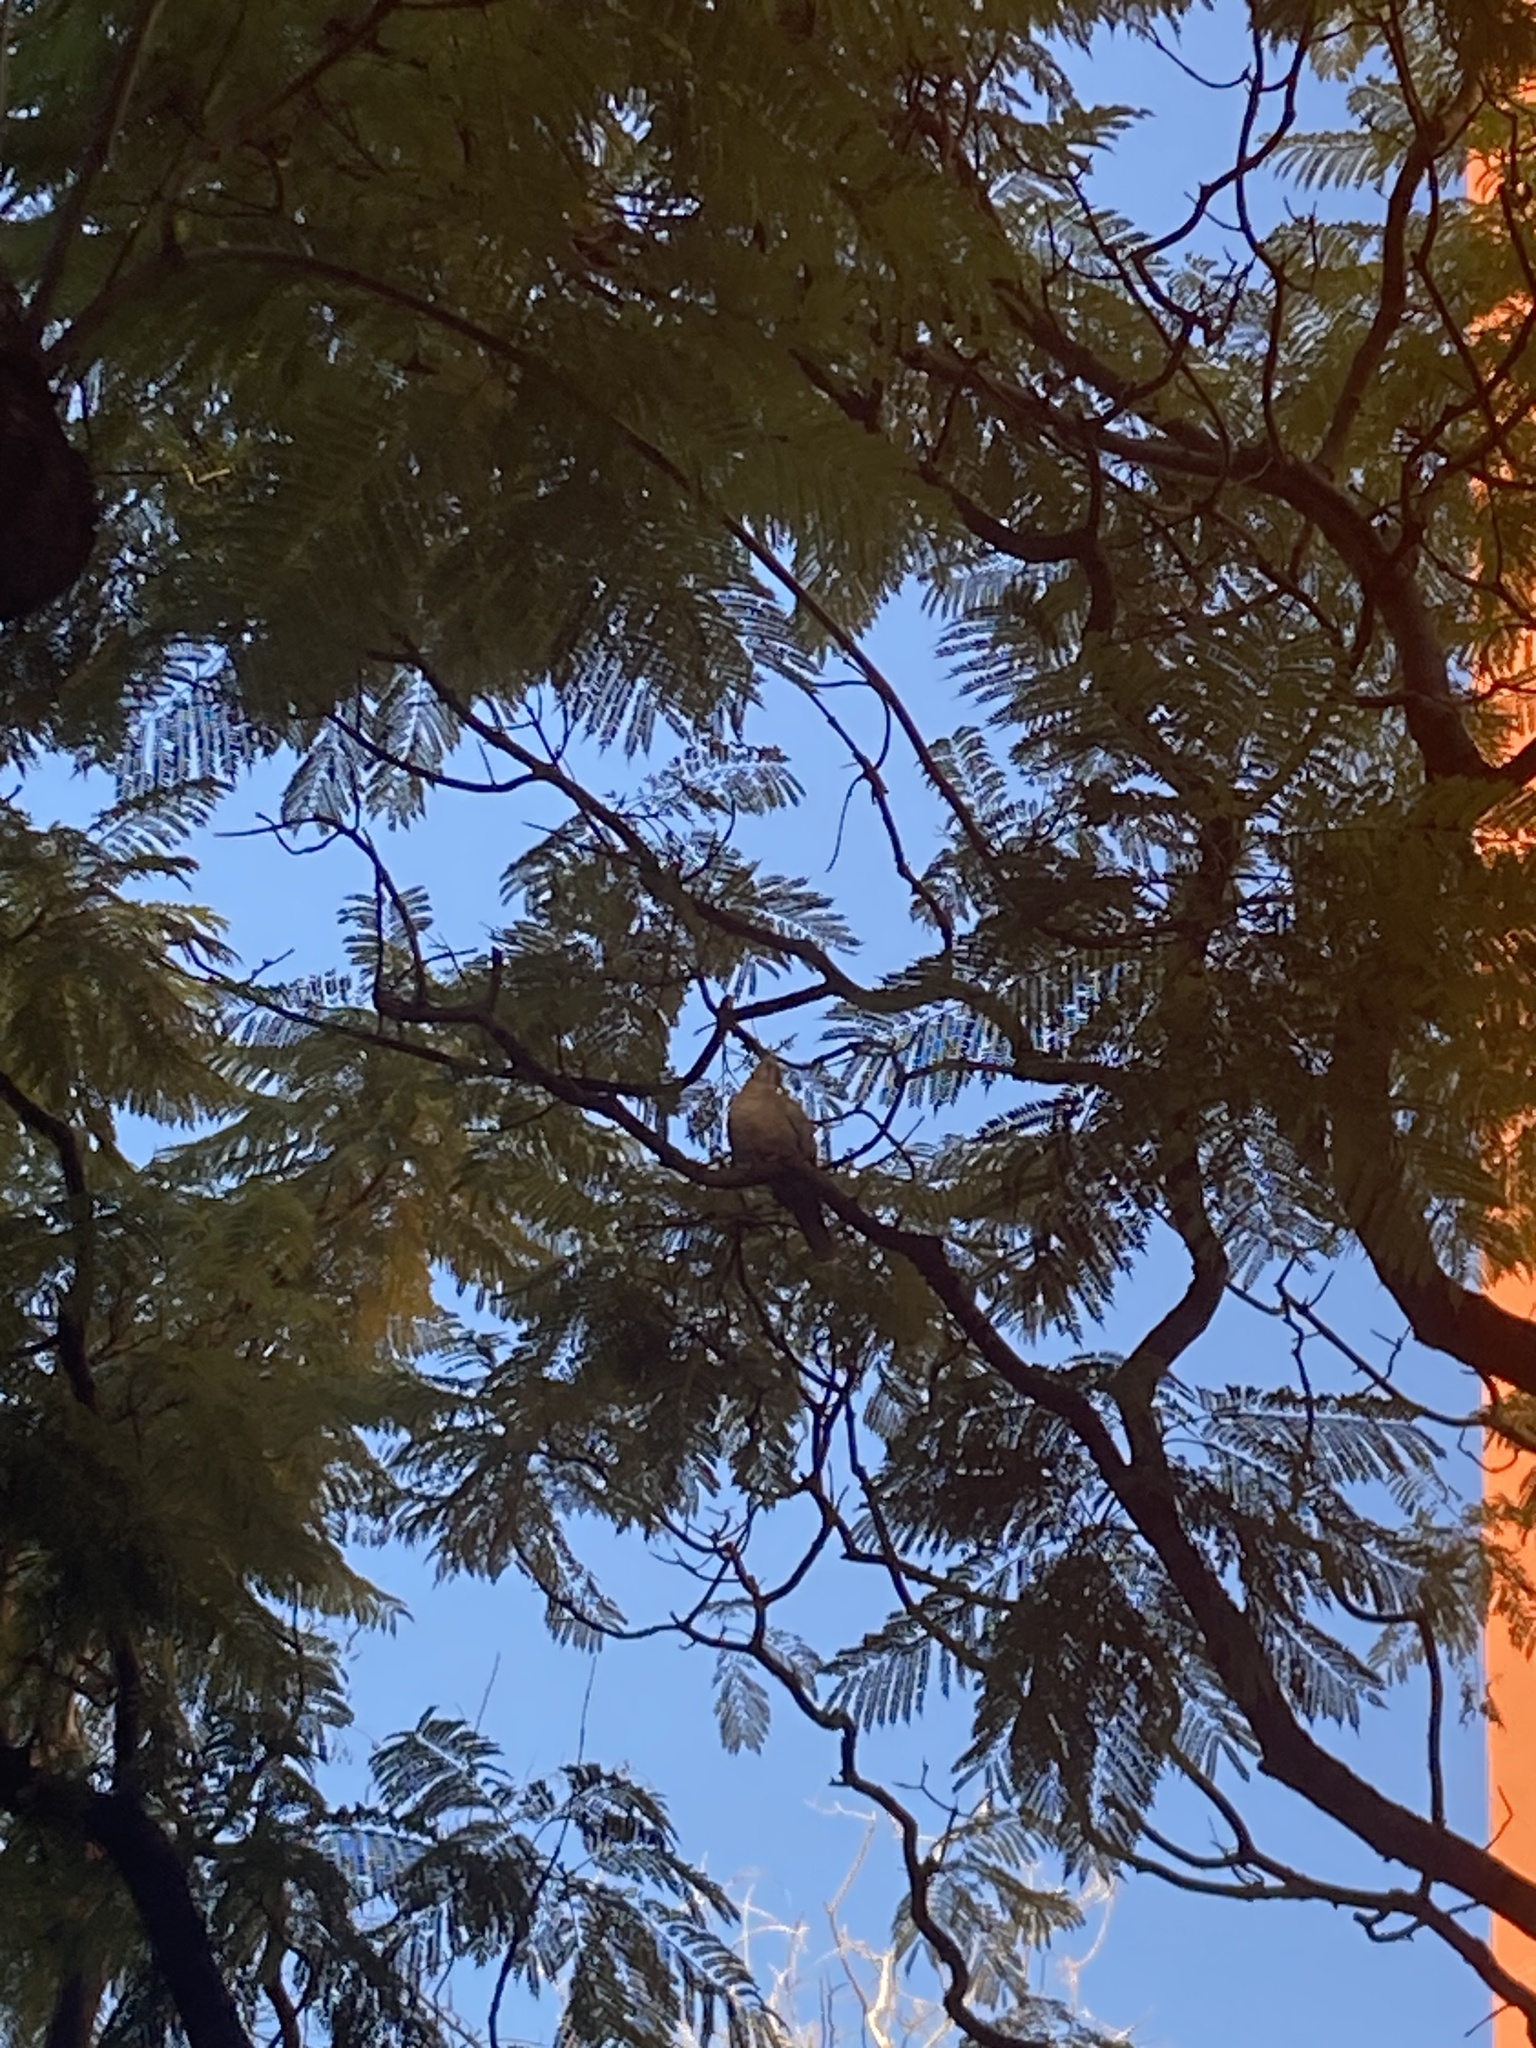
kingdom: Animalia
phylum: Chordata
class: Aves
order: Columbiformes
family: Columbidae
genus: Streptopelia
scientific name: Streptopelia decaocto
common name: Eurasian collared dove
